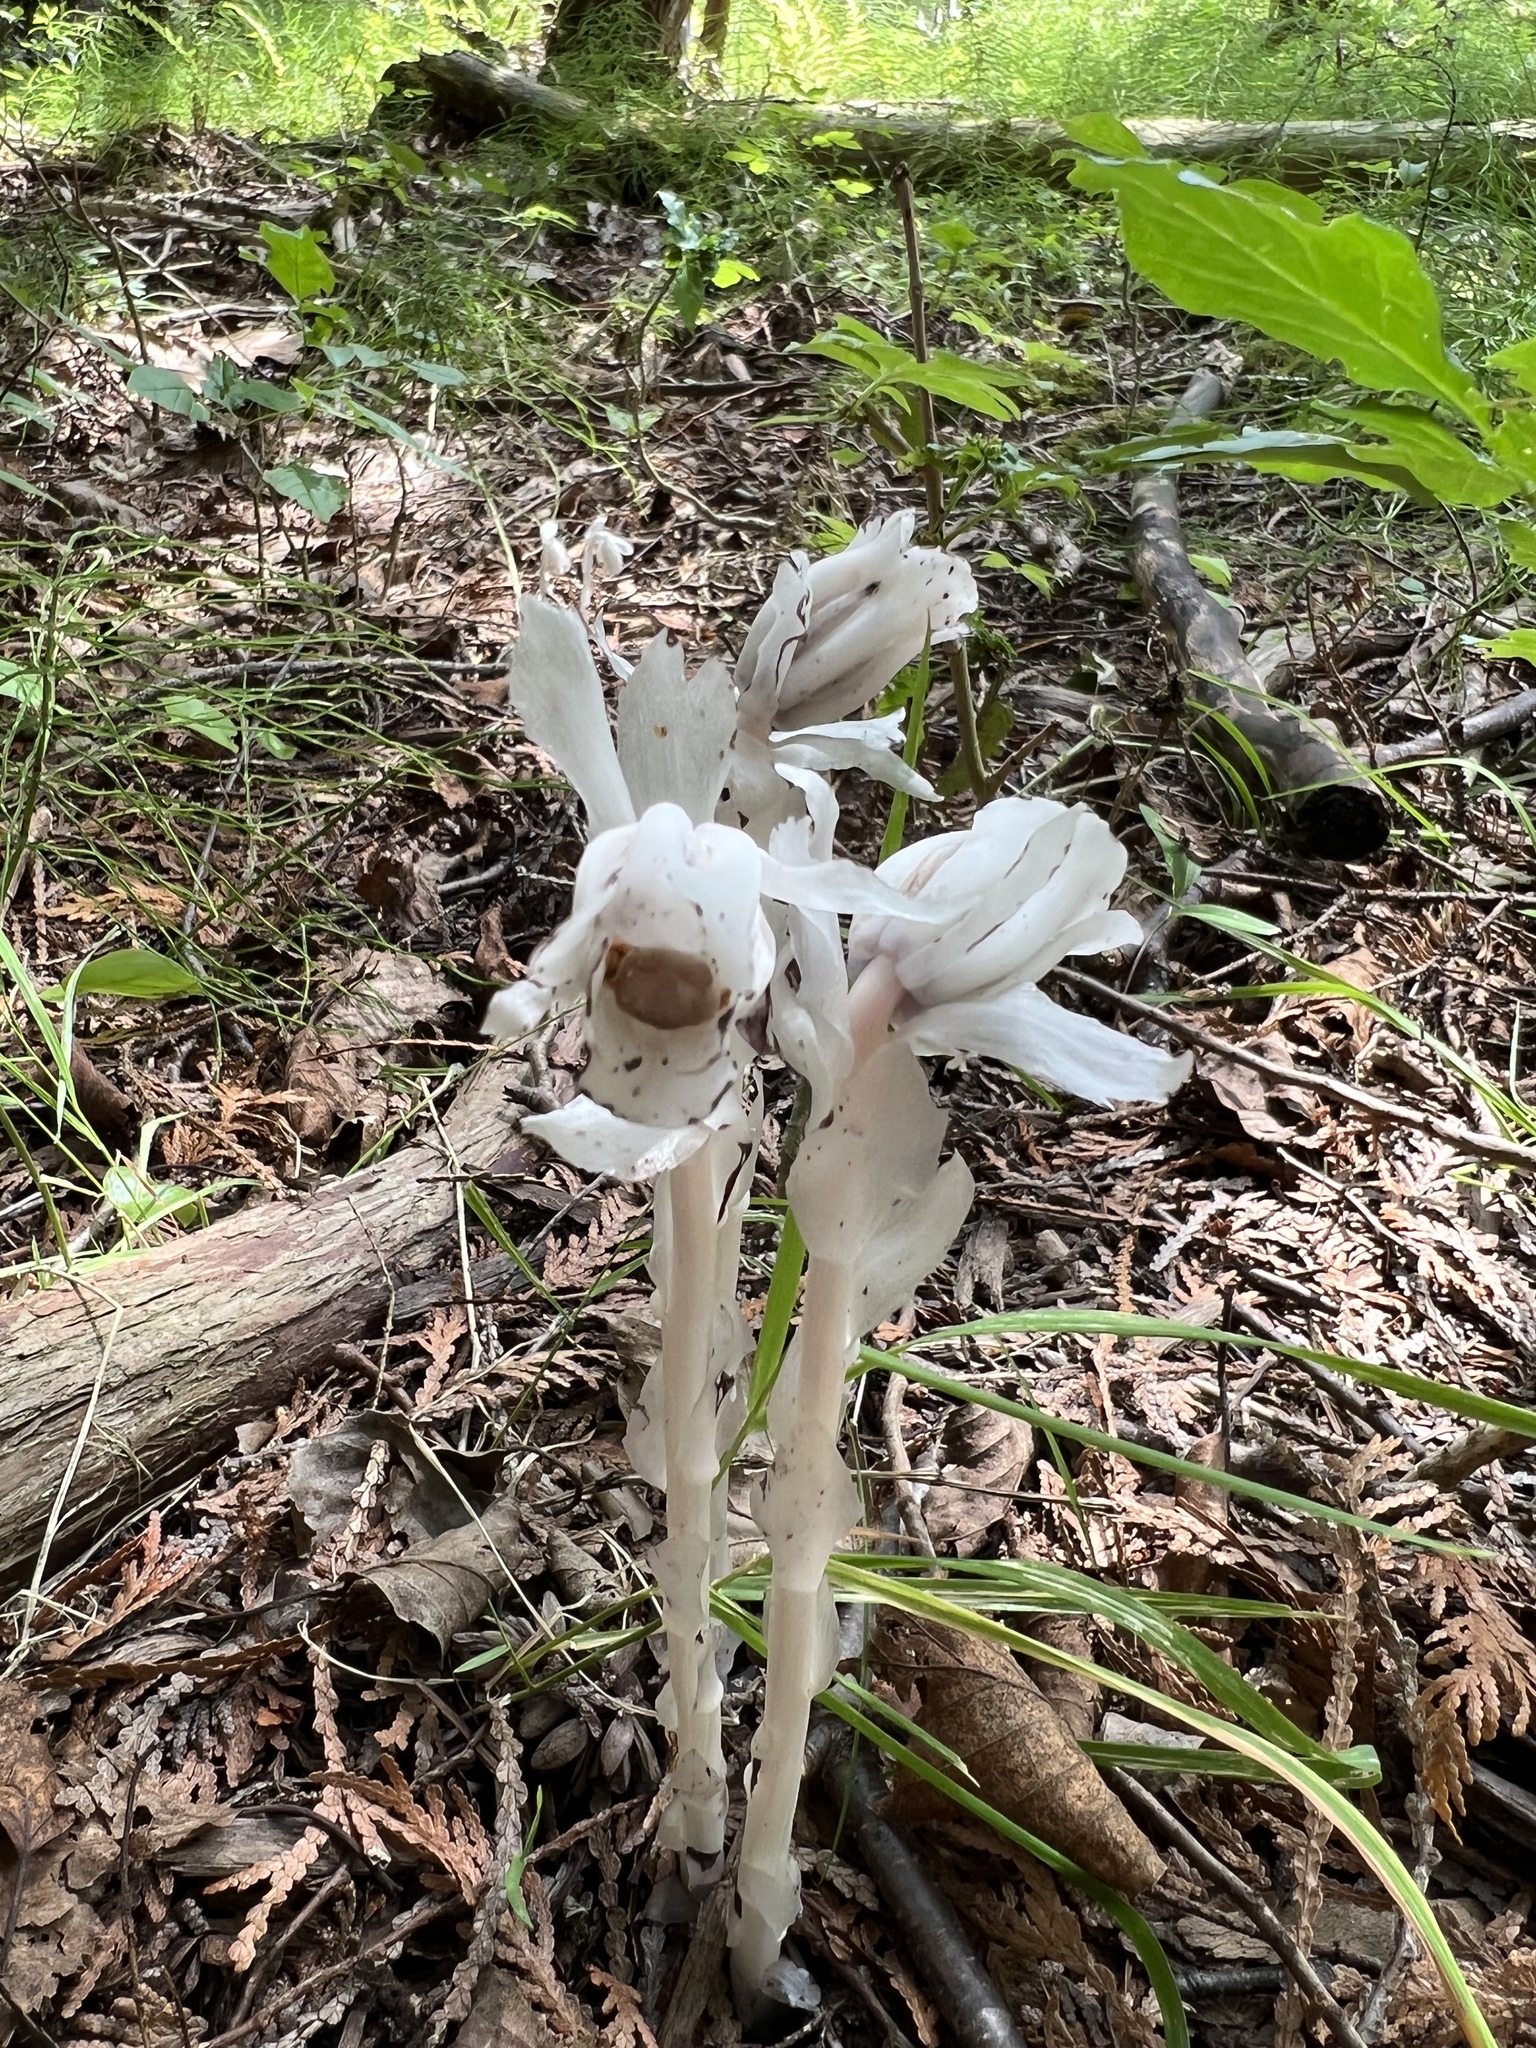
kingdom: Plantae
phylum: Tracheophyta
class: Magnoliopsida
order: Ericales
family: Ericaceae
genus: Monotropa
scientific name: Monotropa uniflora
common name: Convulsion root
